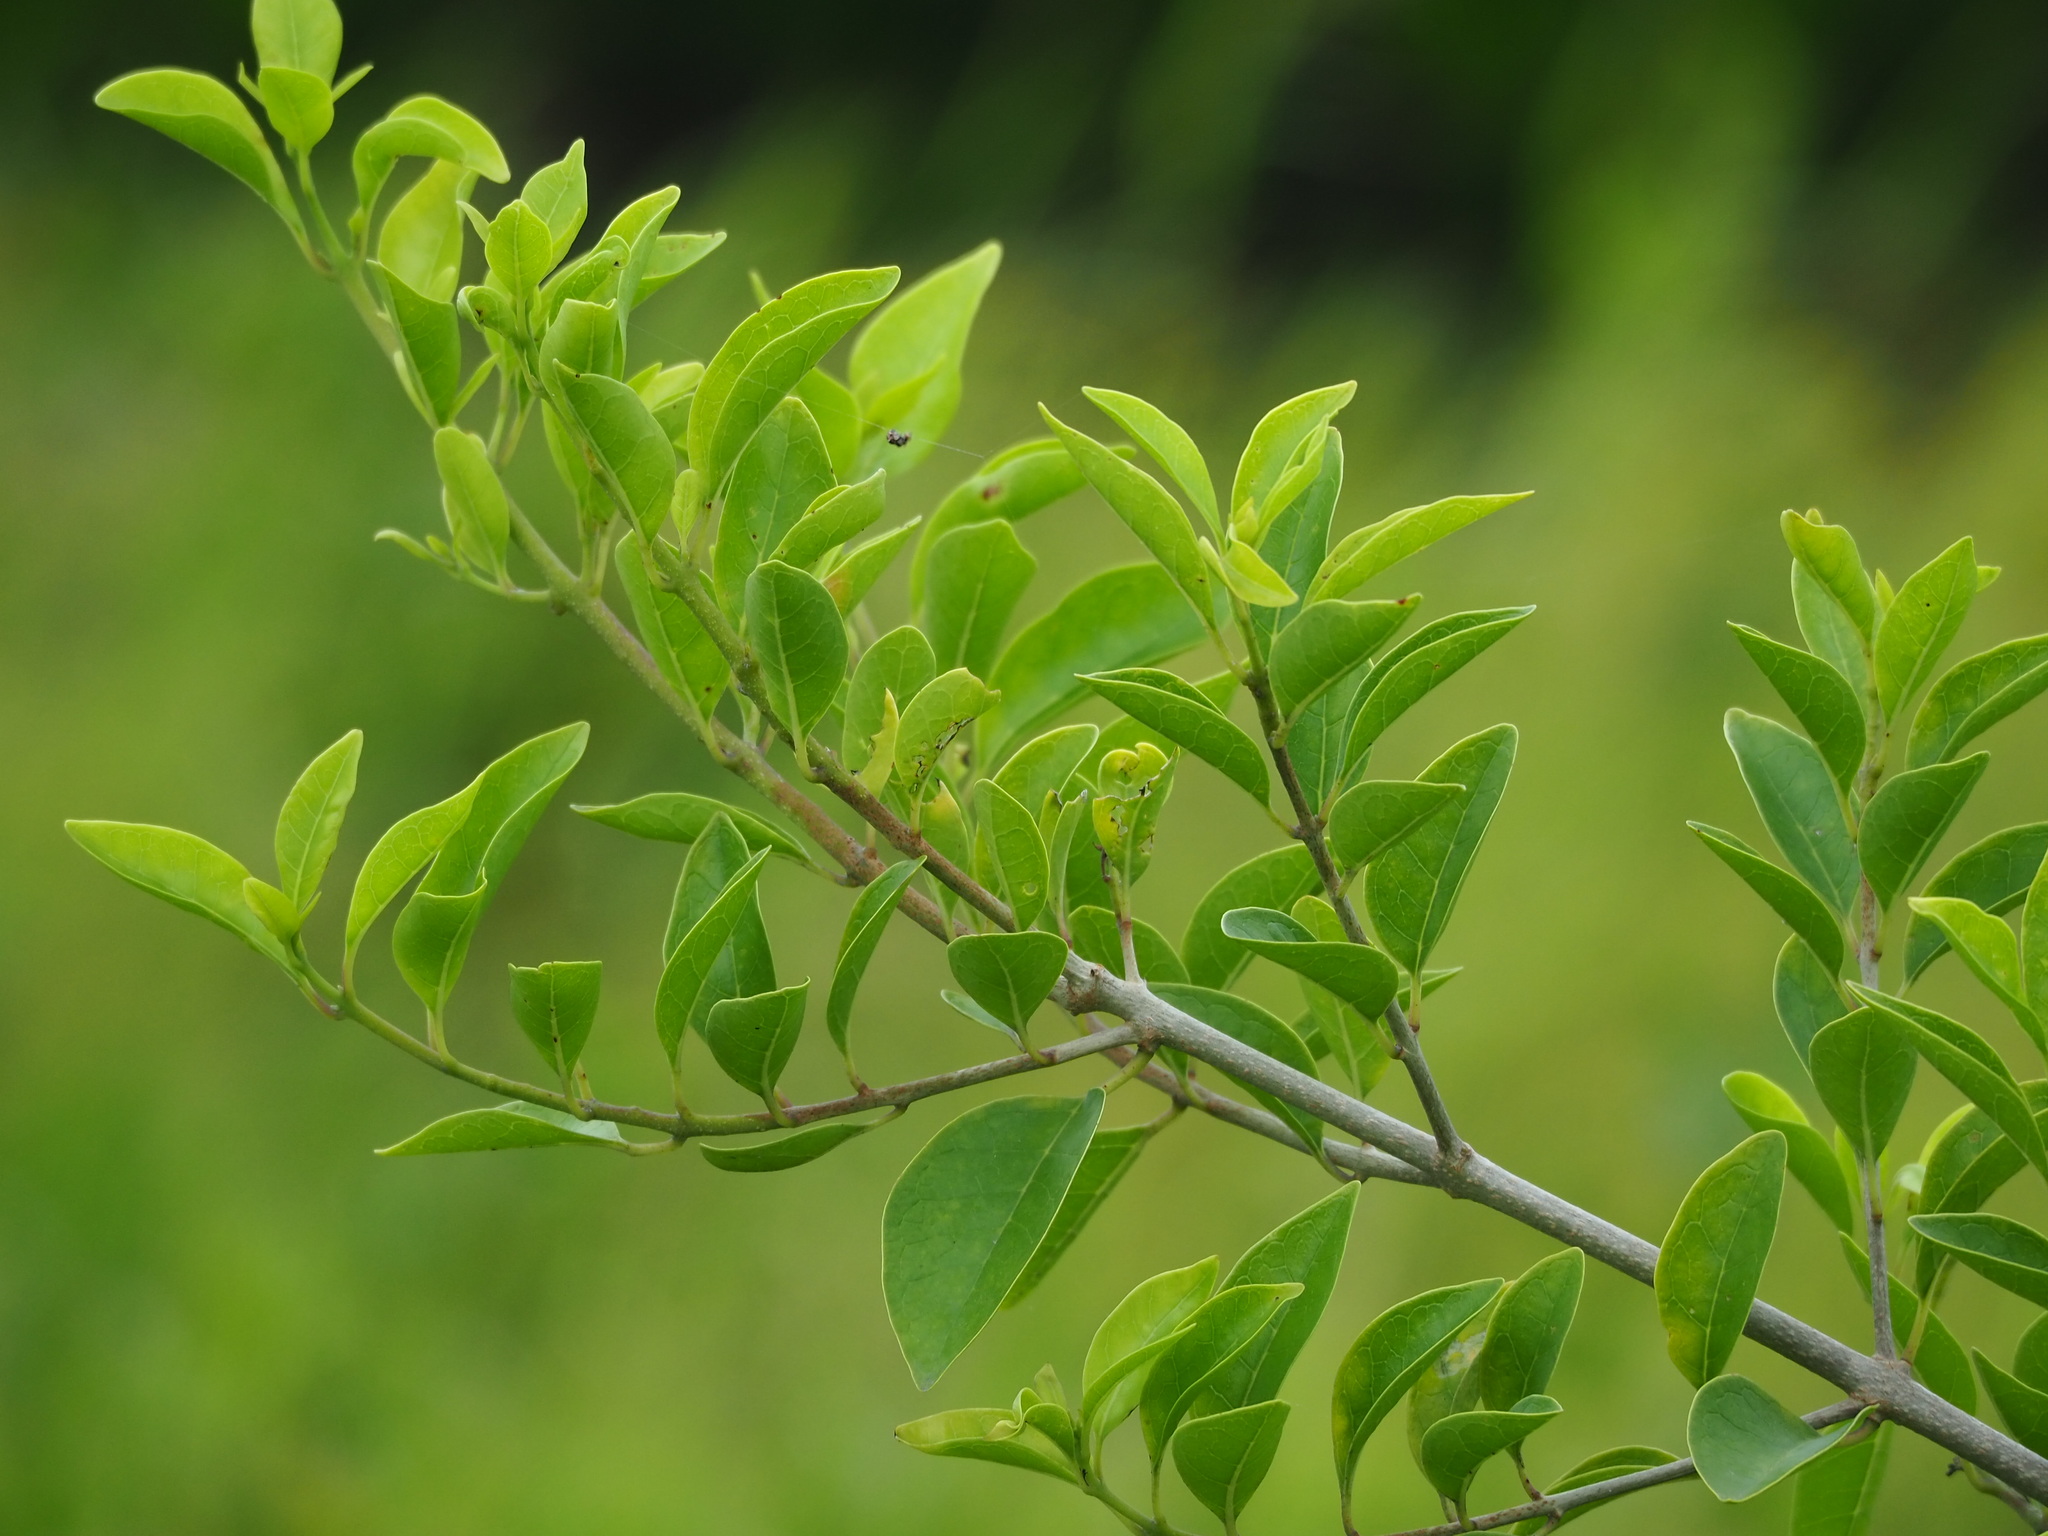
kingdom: Plantae
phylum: Tracheophyta
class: Magnoliopsida
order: Lamiales
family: Lamiaceae
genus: Volkameria
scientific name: Volkameria inermis
